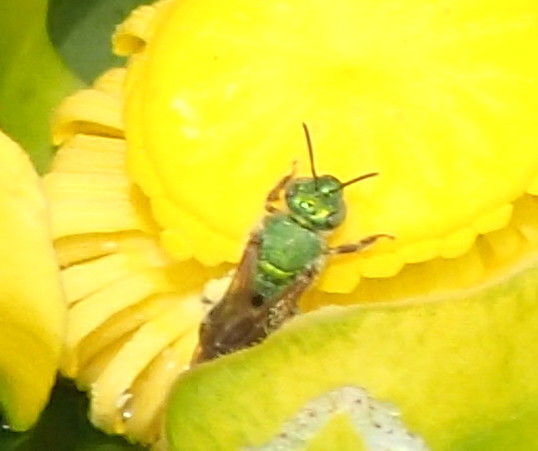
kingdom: Animalia
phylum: Arthropoda
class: Insecta
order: Hymenoptera
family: Halictidae
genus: Agapostemon
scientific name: Agapostemon splendens
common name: Brown-winged striped sweat bee
